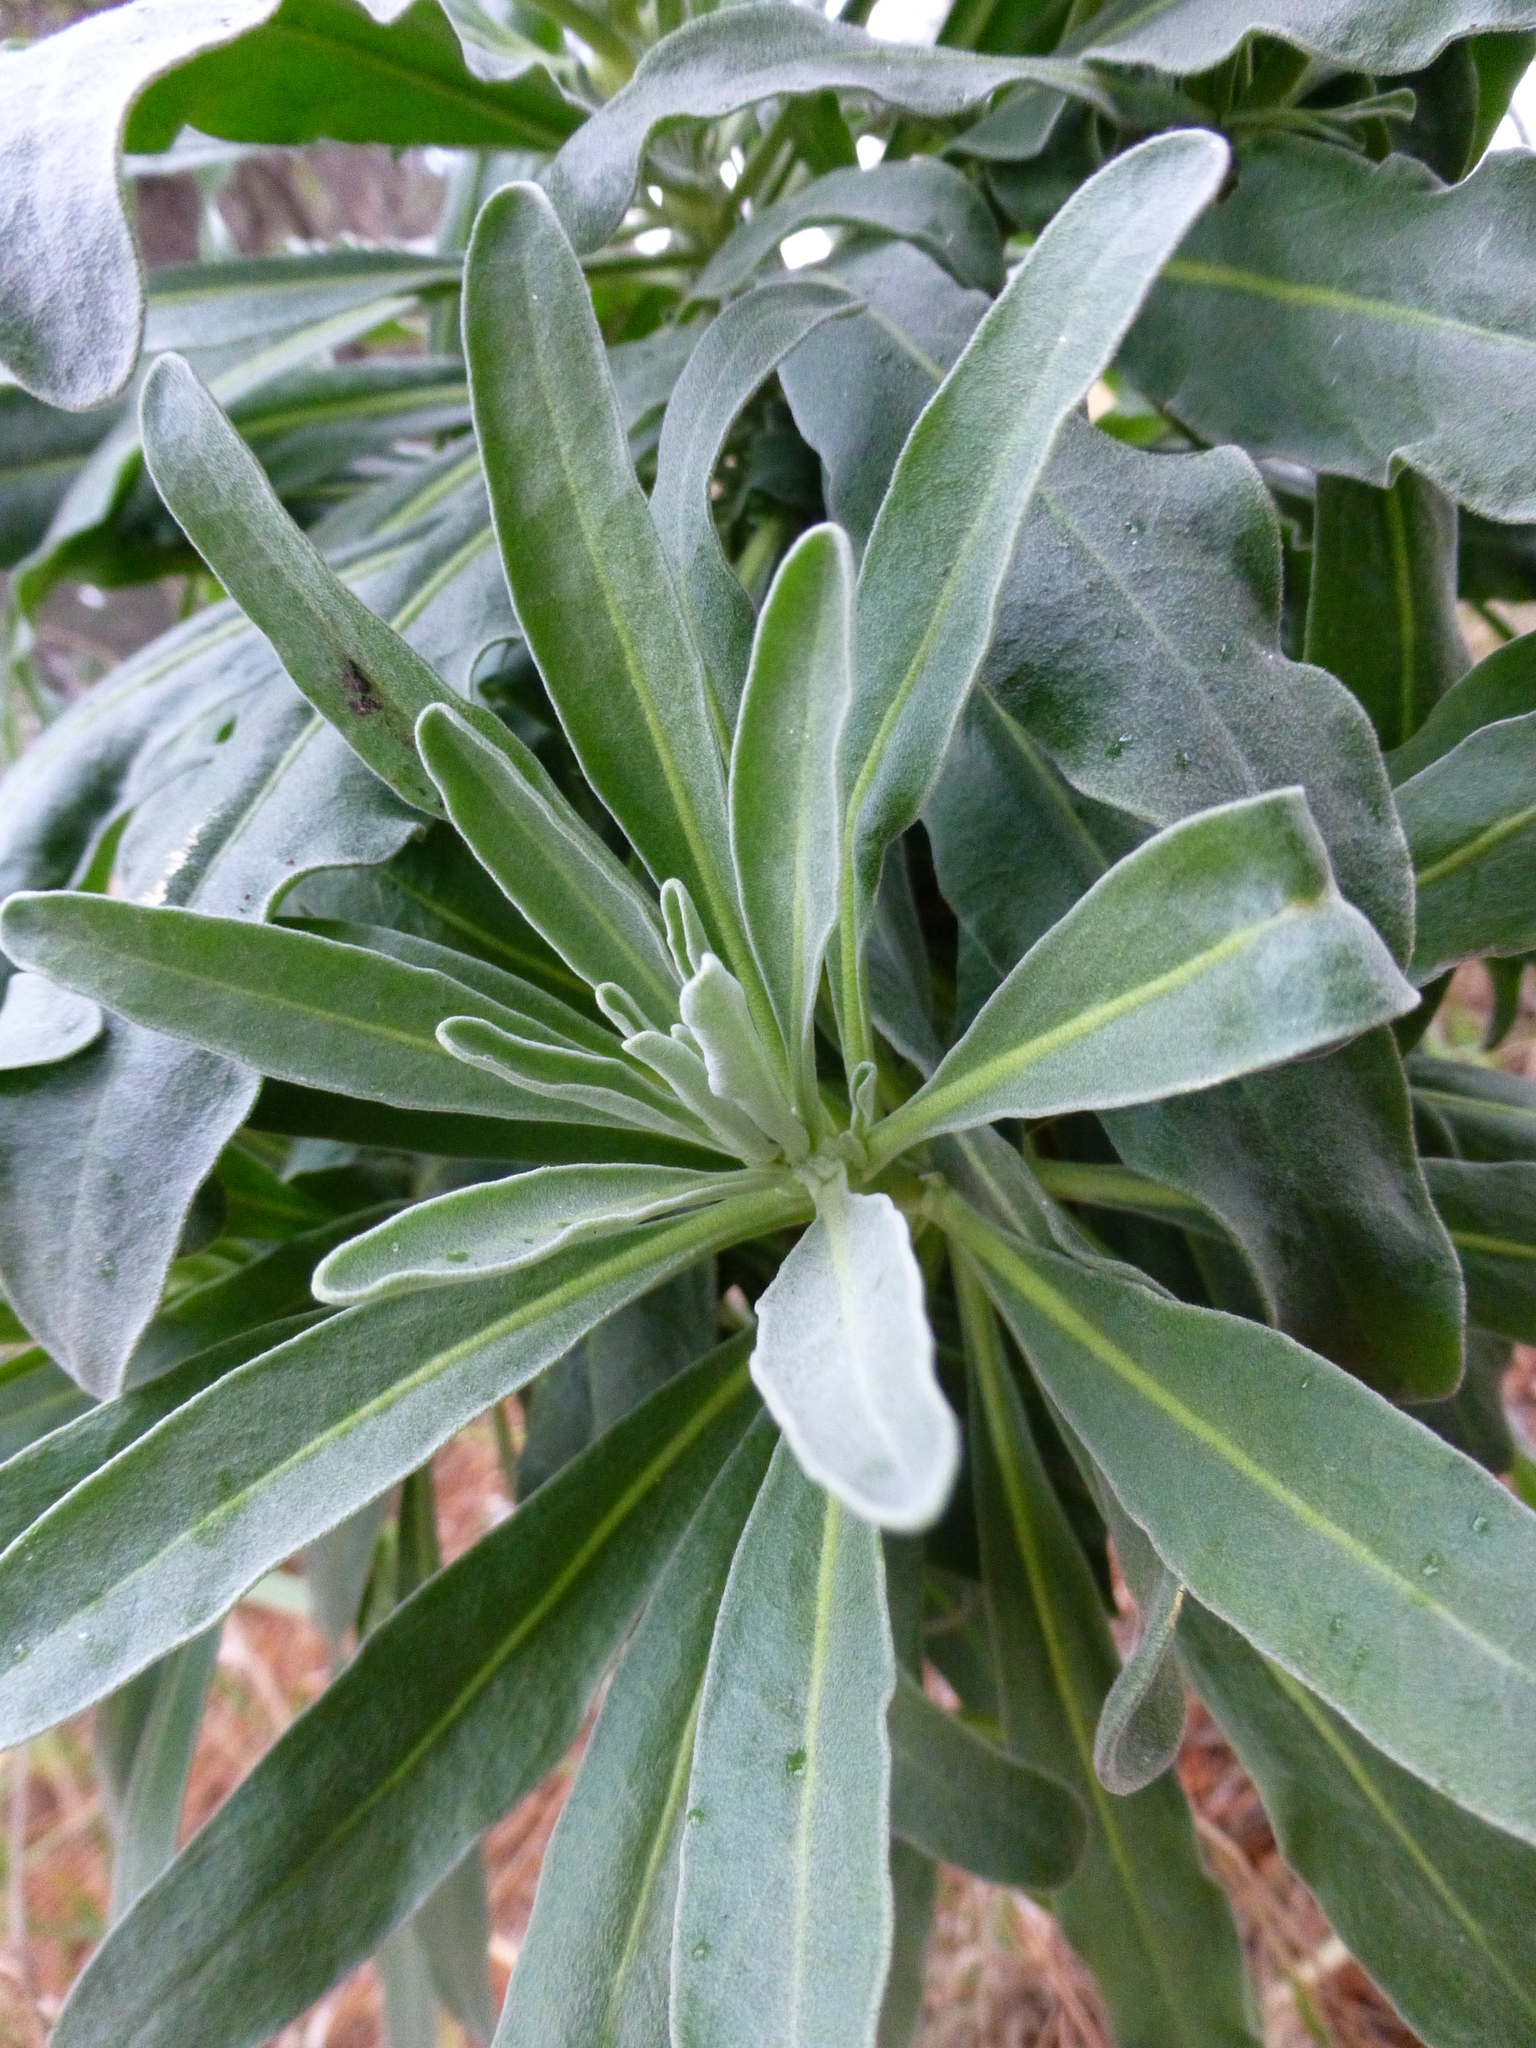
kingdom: Plantae
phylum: Tracheophyta
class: Magnoliopsida
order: Brassicales
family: Brassicaceae
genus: Matthiola
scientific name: Matthiola incana
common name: Hoary stock
